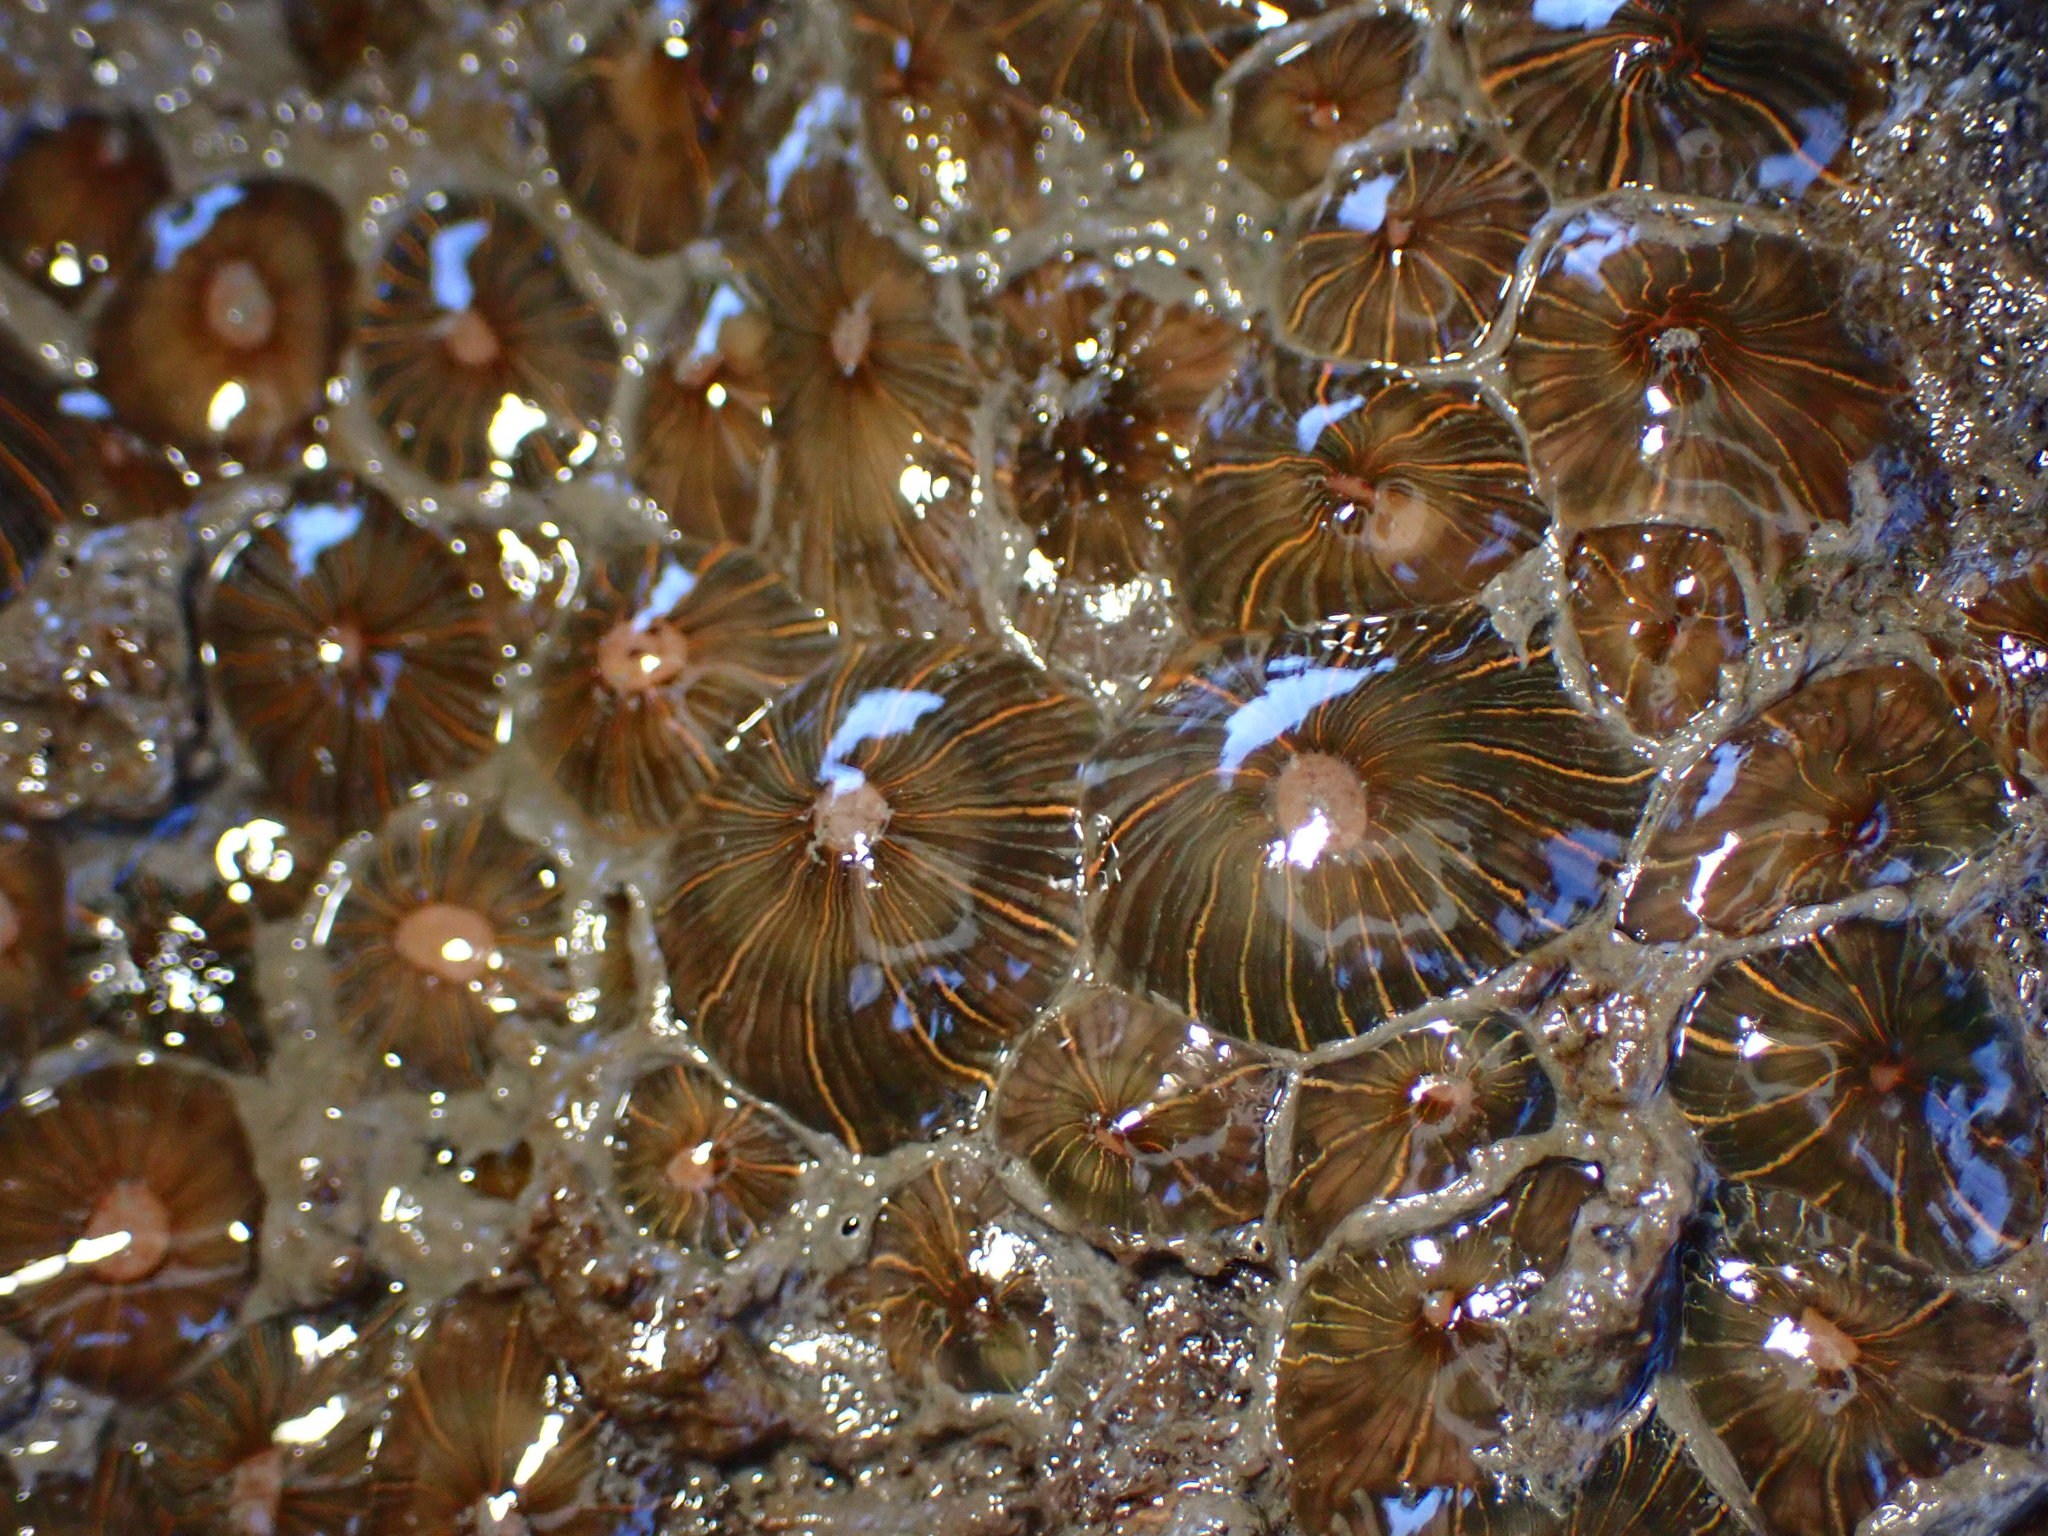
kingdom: Animalia
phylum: Cnidaria
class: Anthozoa
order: Actiniaria
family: Diadumenidae
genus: Diadumene
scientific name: Diadumene lineata
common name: Orange-striped anemone
